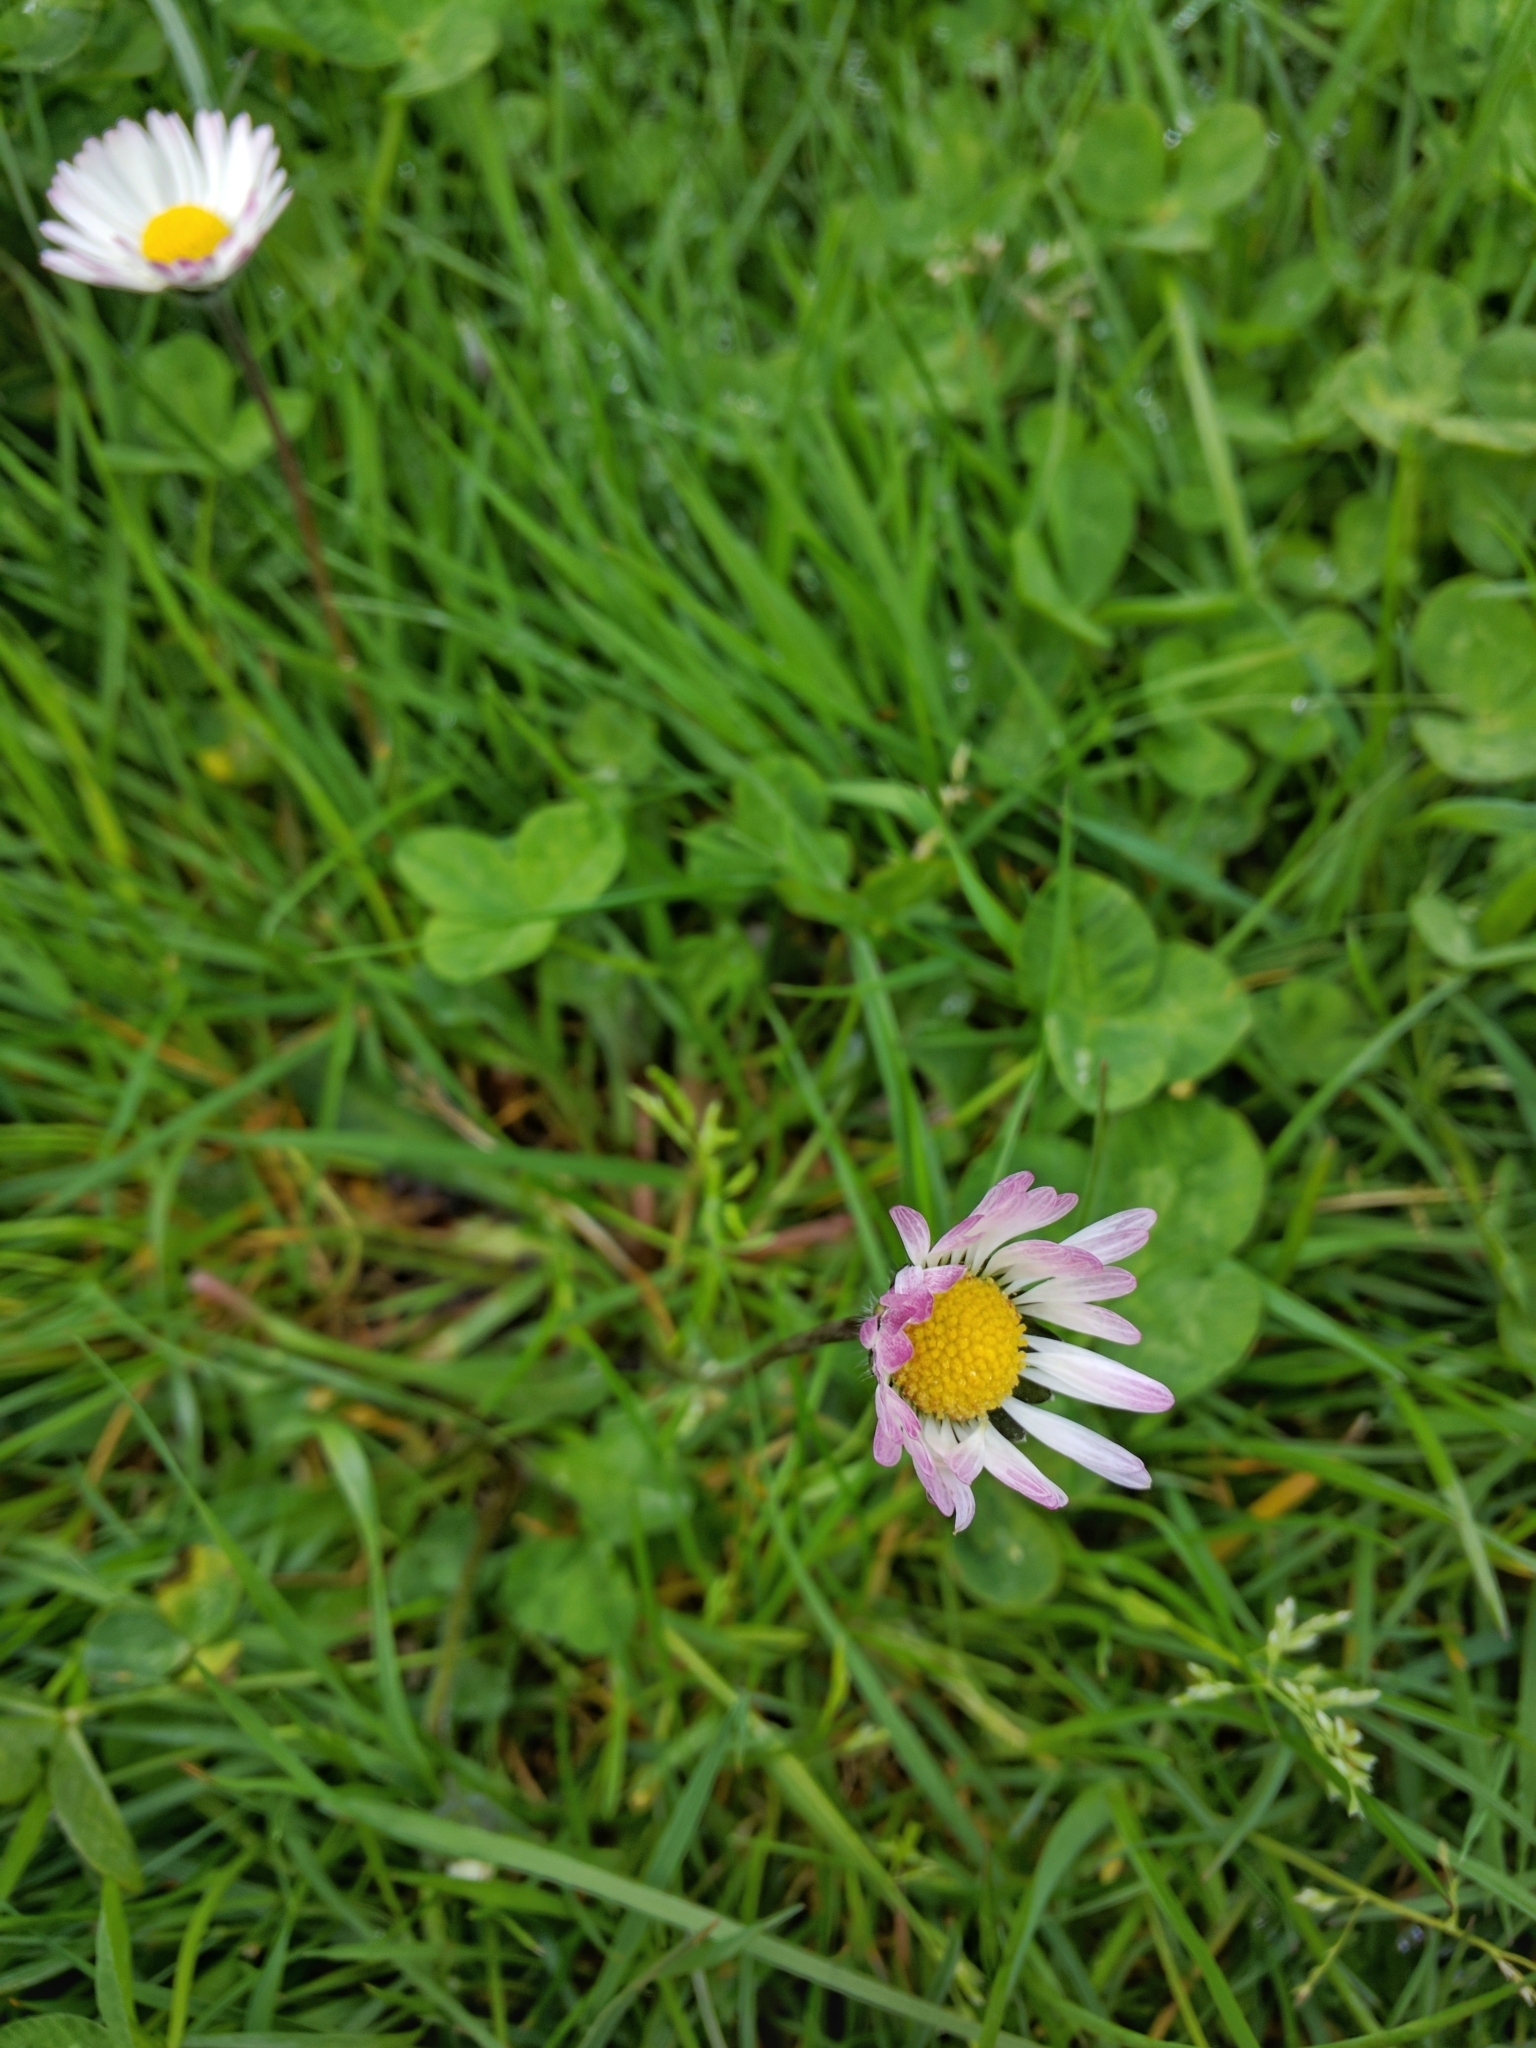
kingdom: Plantae
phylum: Tracheophyta
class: Magnoliopsida
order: Asterales
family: Asteraceae
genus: Bellis
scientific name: Bellis perennis
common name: Lawndaisy
